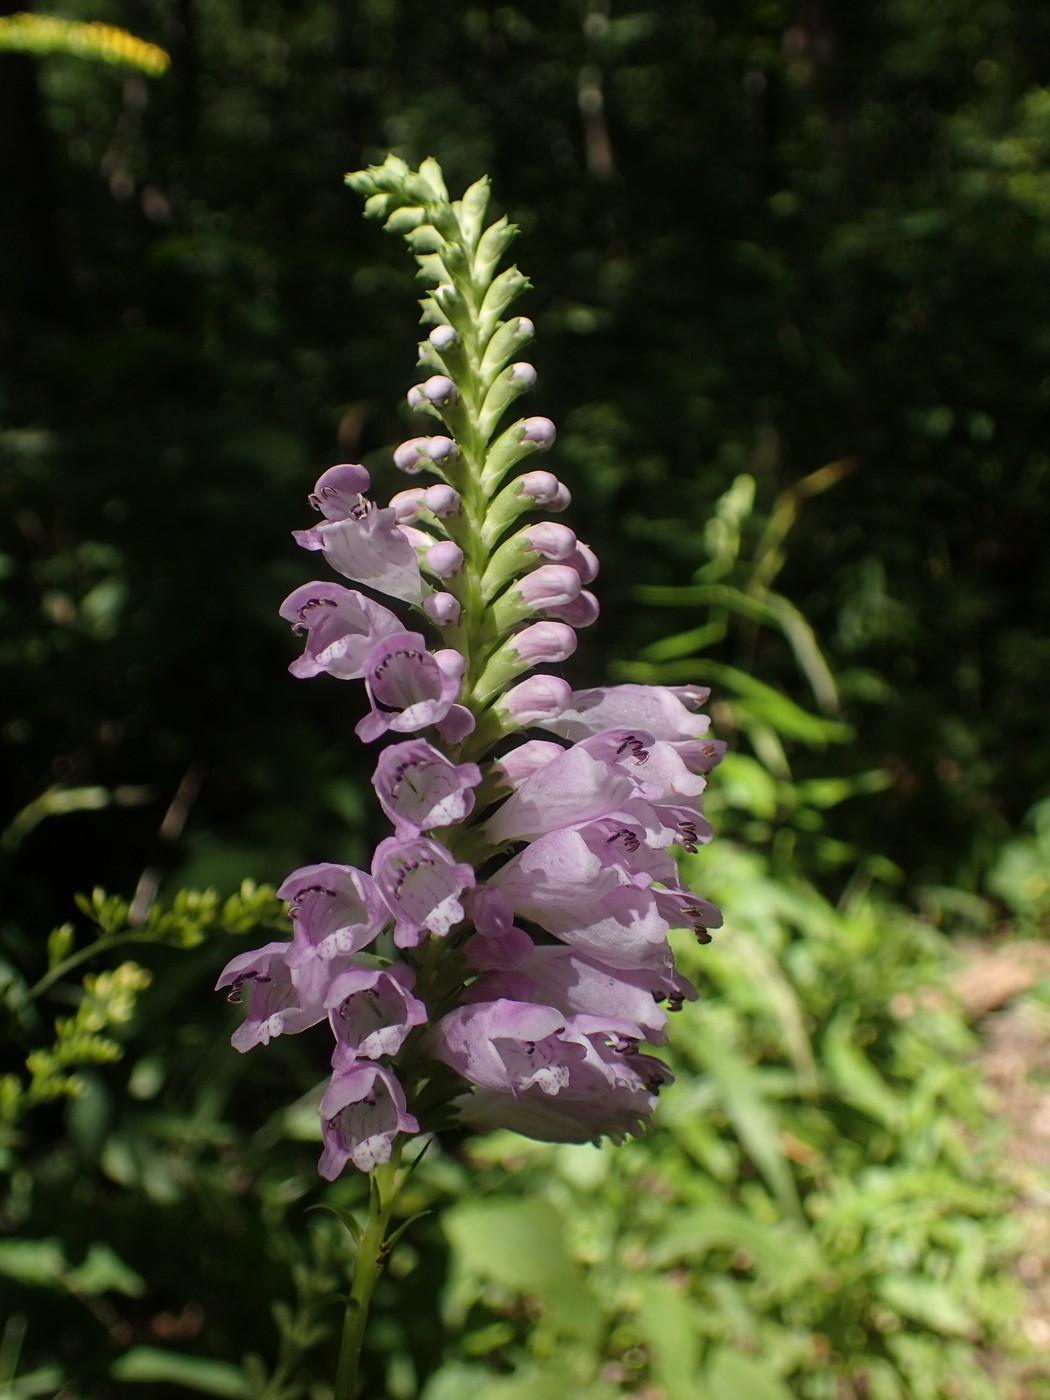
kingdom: Plantae
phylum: Tracheophyta
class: Magnoliopsida
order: Lamiales
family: Lamiaceae
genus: Physostegia
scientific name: Physostegia virginiana
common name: Obedient-plant
